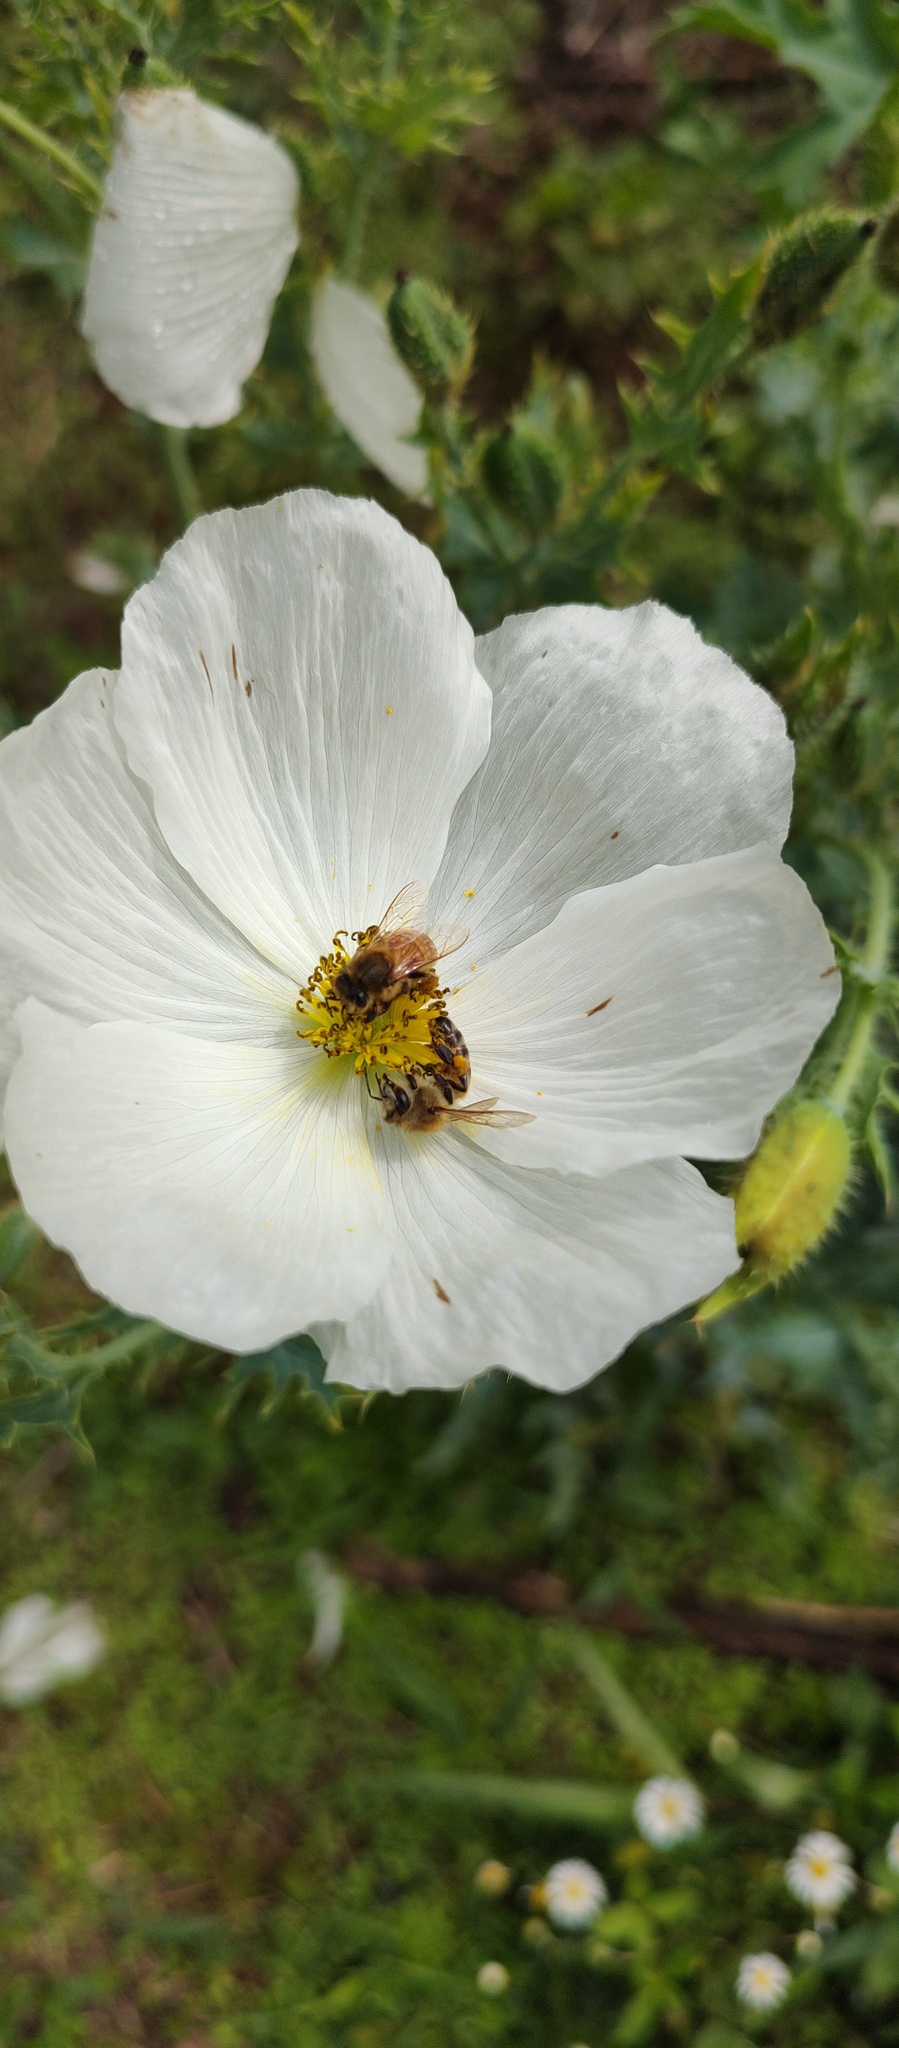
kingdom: Animalia
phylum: Arthropoda
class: Insecta
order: Hymenoptera
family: Apidae
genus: Apis
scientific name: Apis mellifera
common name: Honey bee
